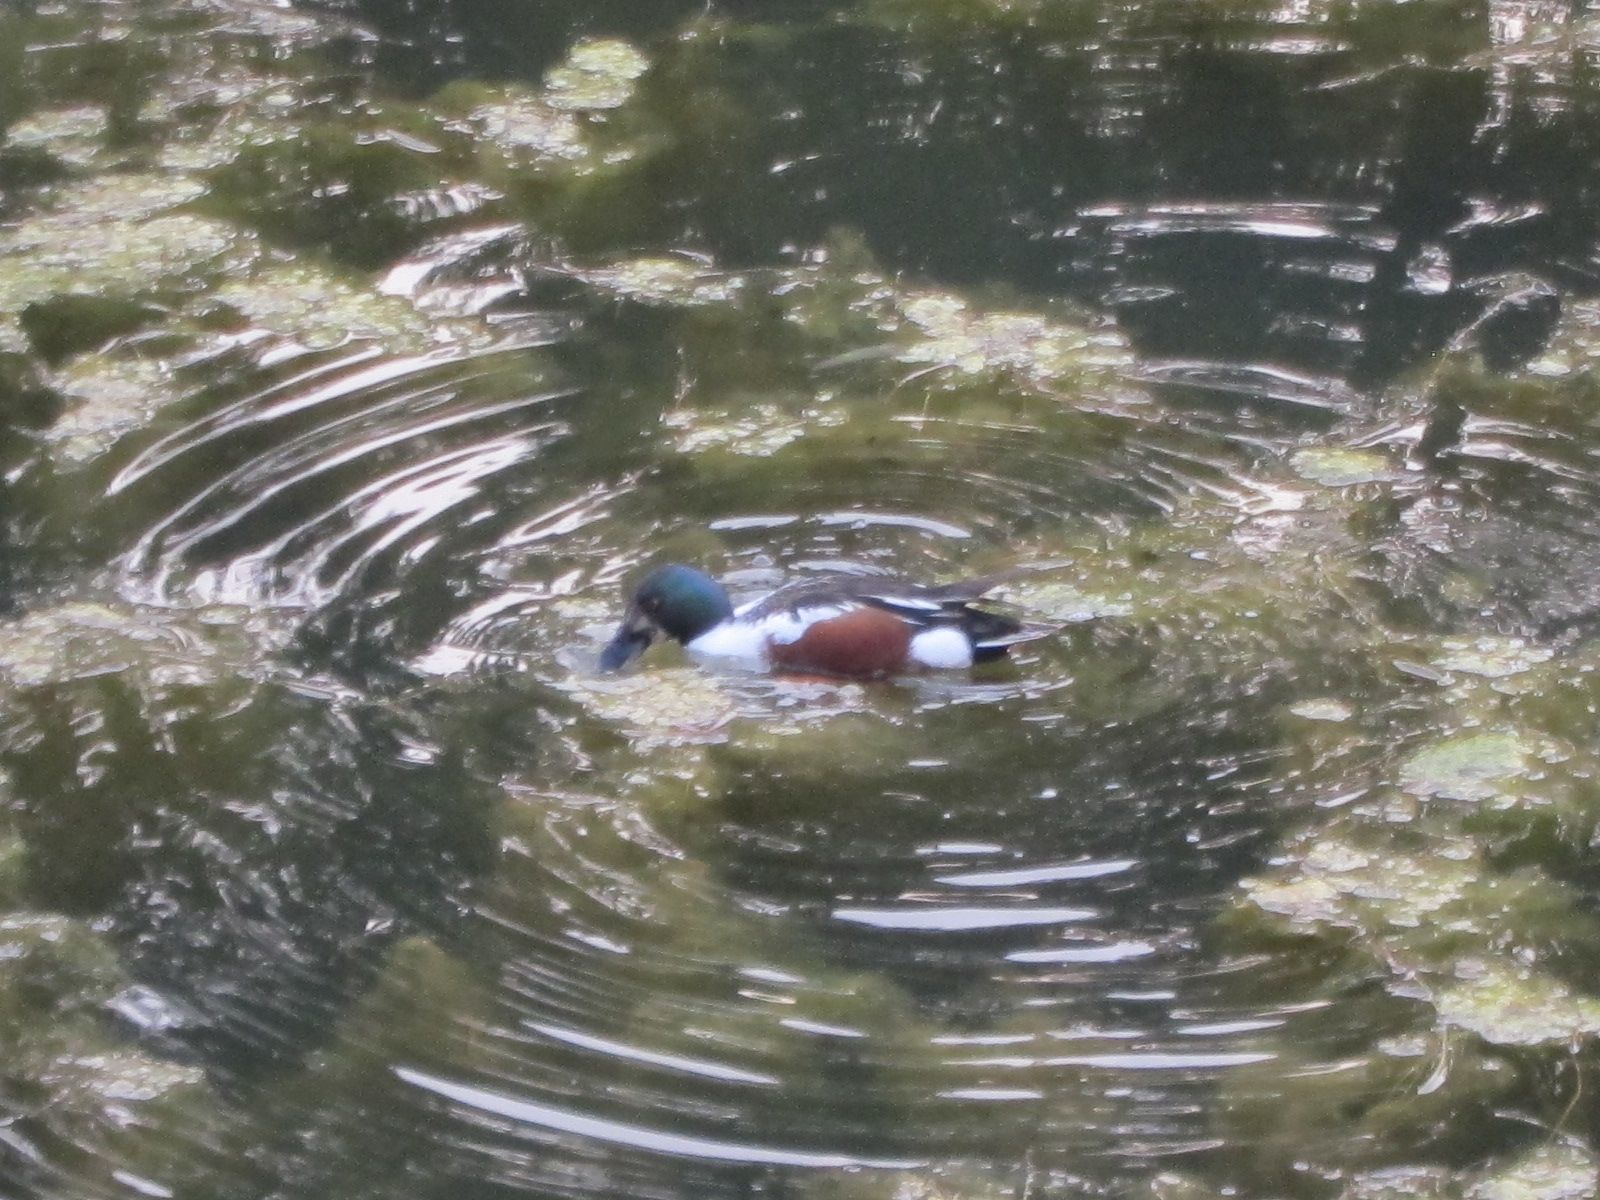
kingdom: Animalia
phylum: Chordata
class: Aves
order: Anseriformes
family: Anatidae
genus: Spatula
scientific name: Spatula clypeata
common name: Northern shoveler
